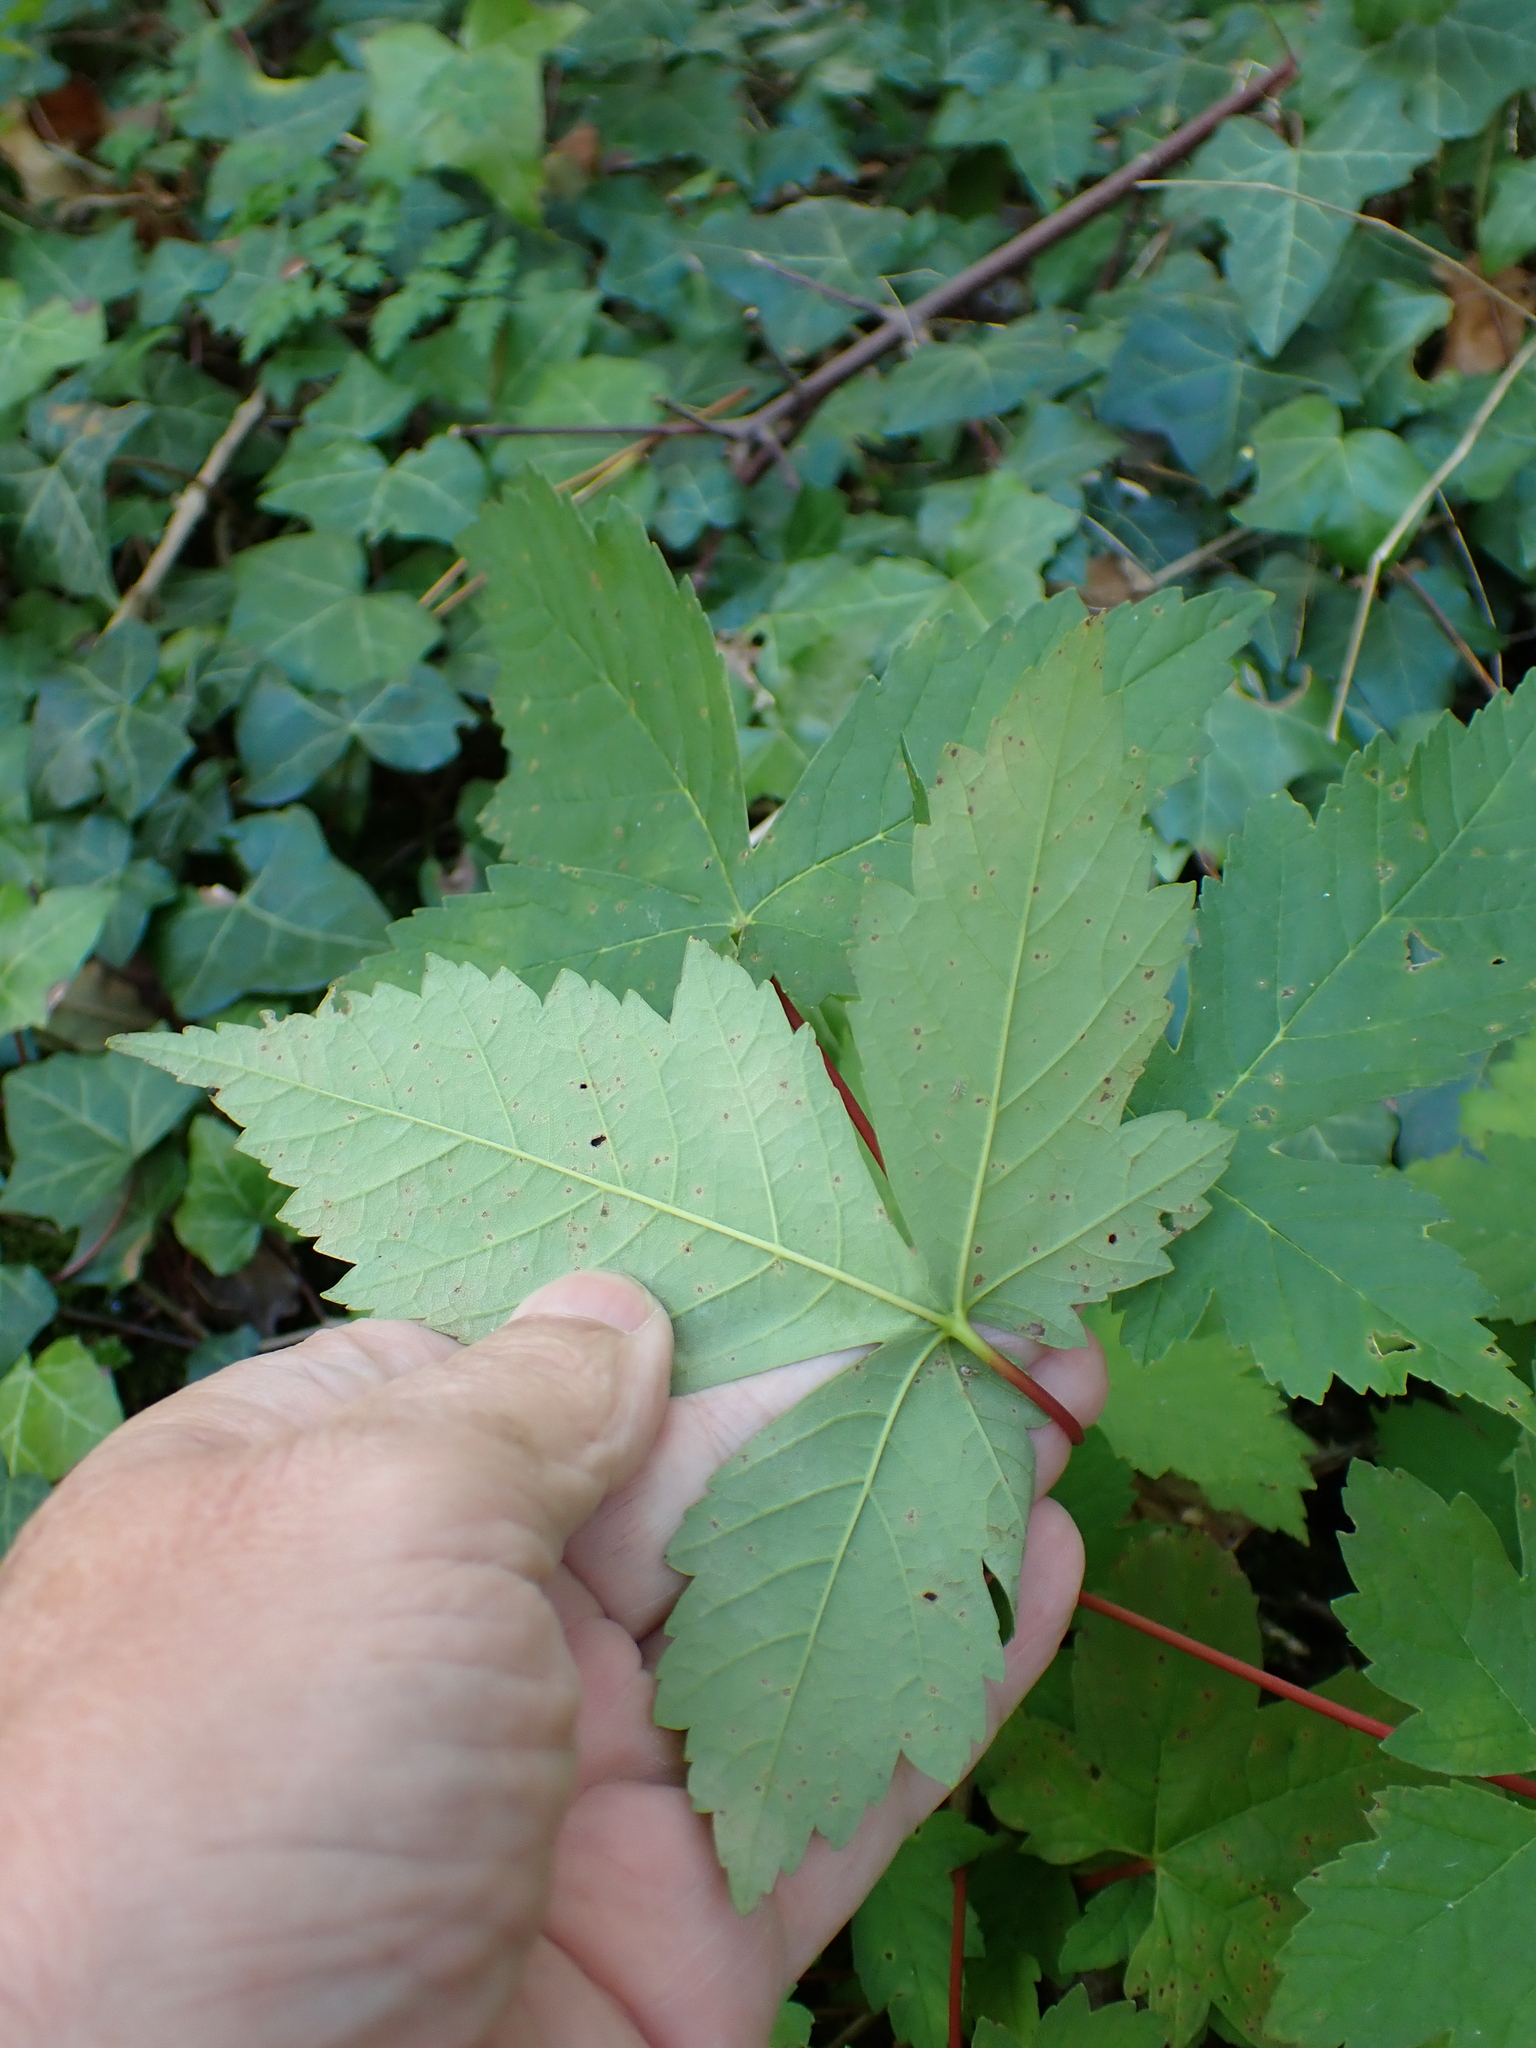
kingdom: Plantae
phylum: Tracheophyta
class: Magnoliopsida
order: Sapindales
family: Sapindaceae
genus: Acer
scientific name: Acer pseudoplatanus
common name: Sycamore
